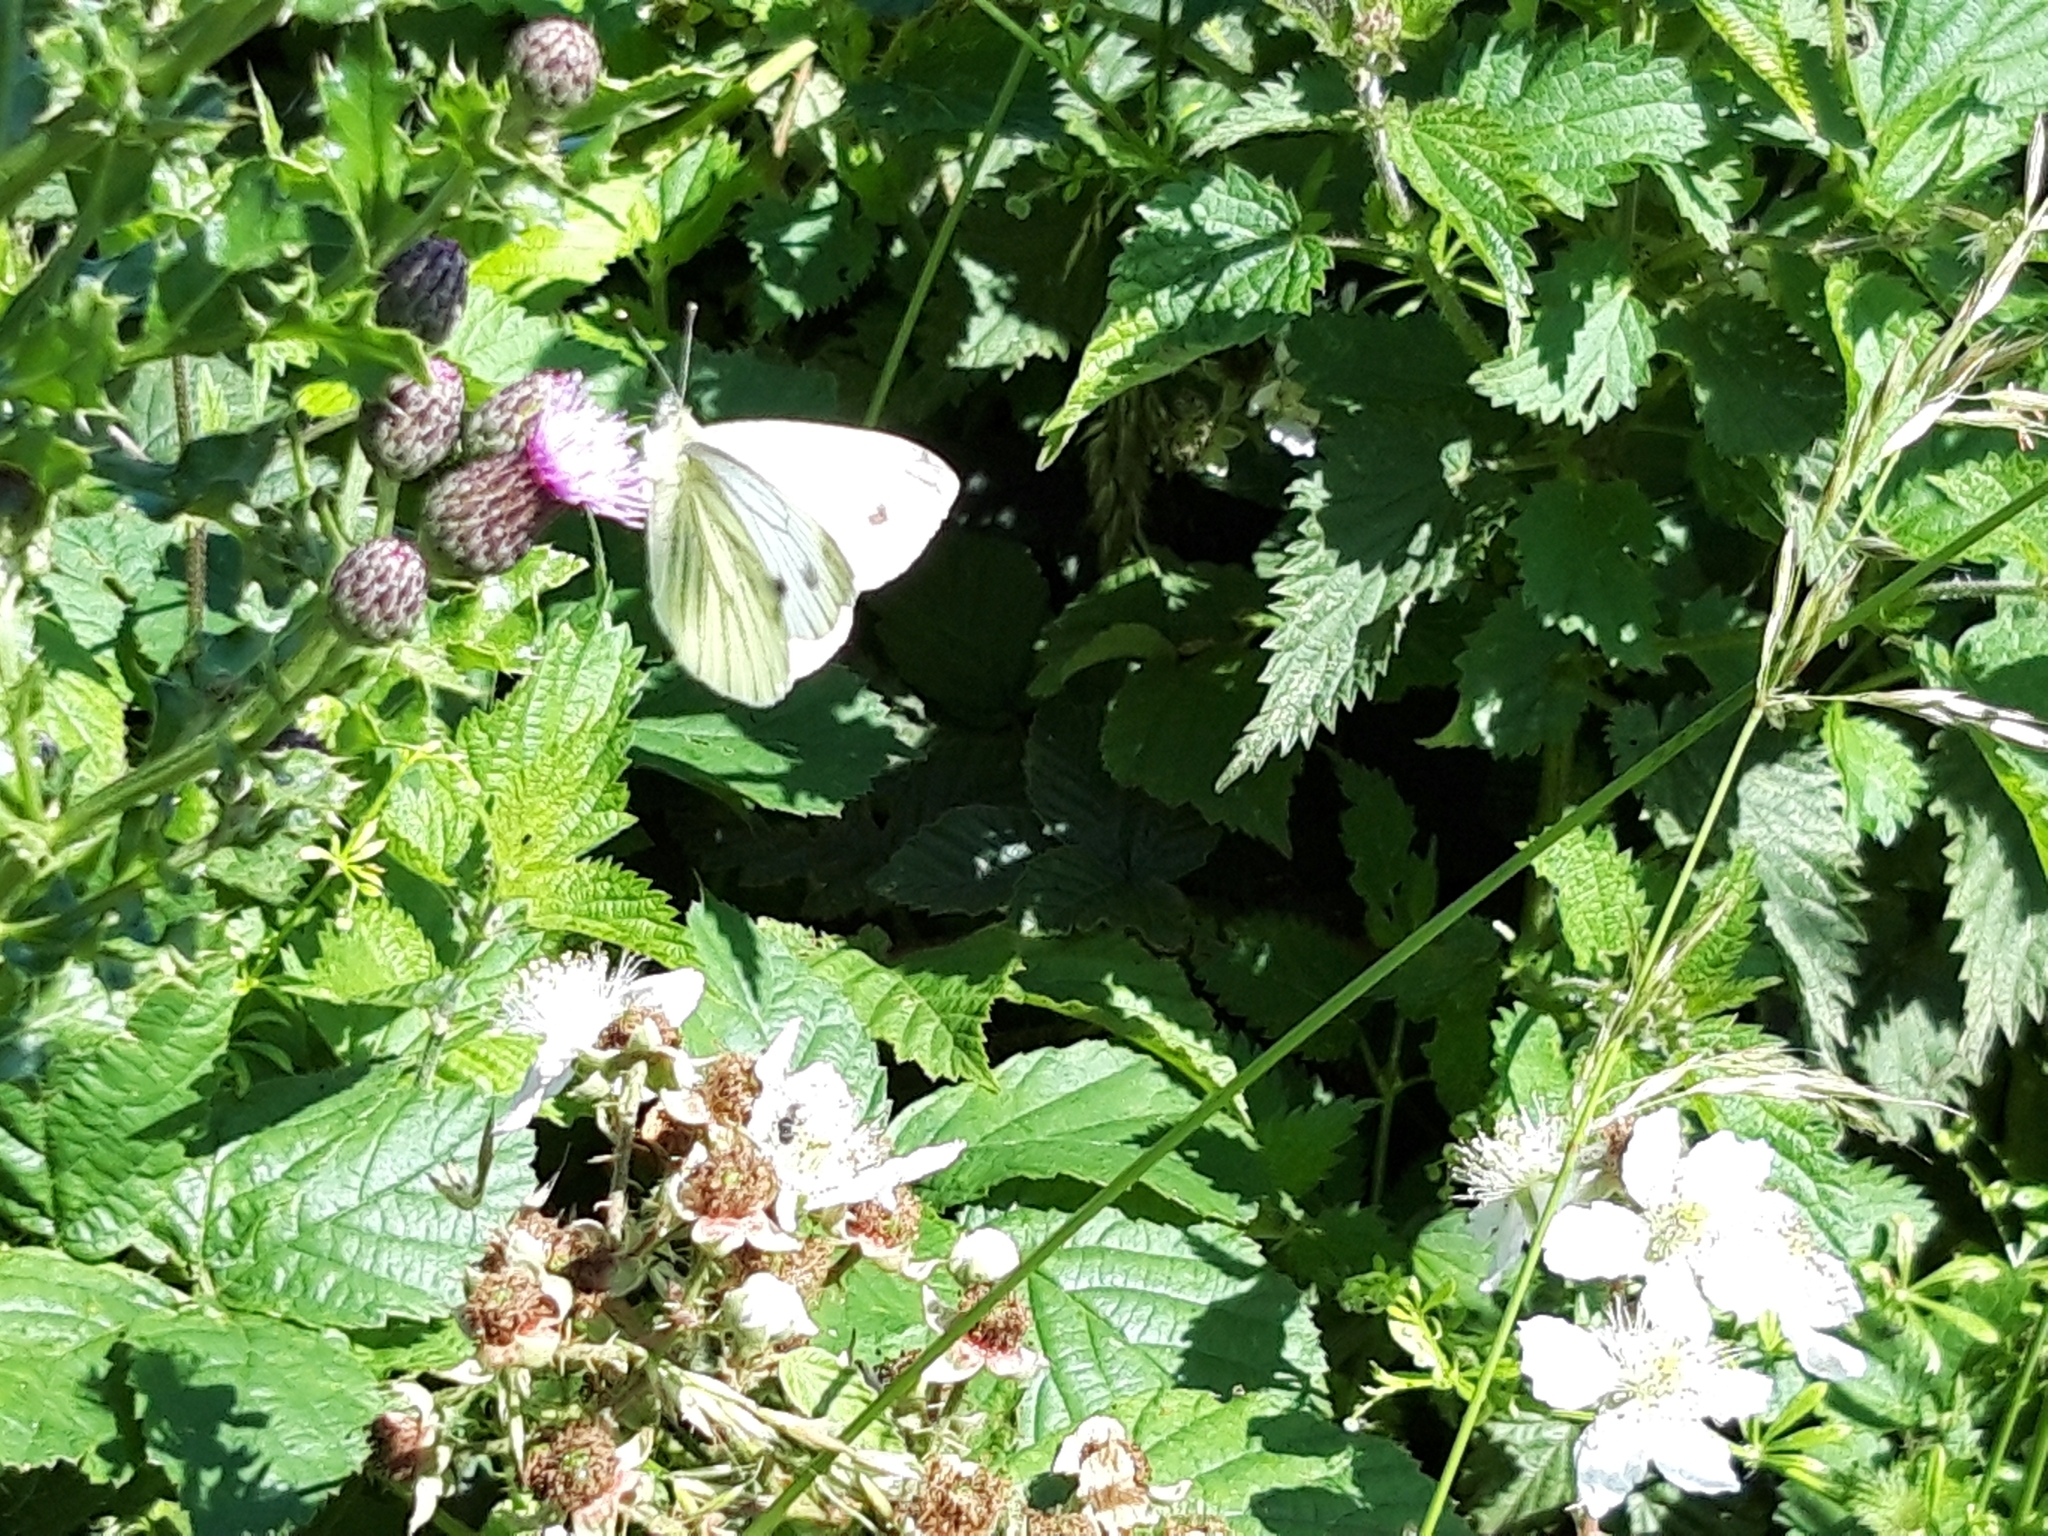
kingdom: Animalia
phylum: Arthropoda
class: Insecta
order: Lepidoptera
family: Pieridae
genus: Pieris
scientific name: Pieris napi
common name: Green-veined white
